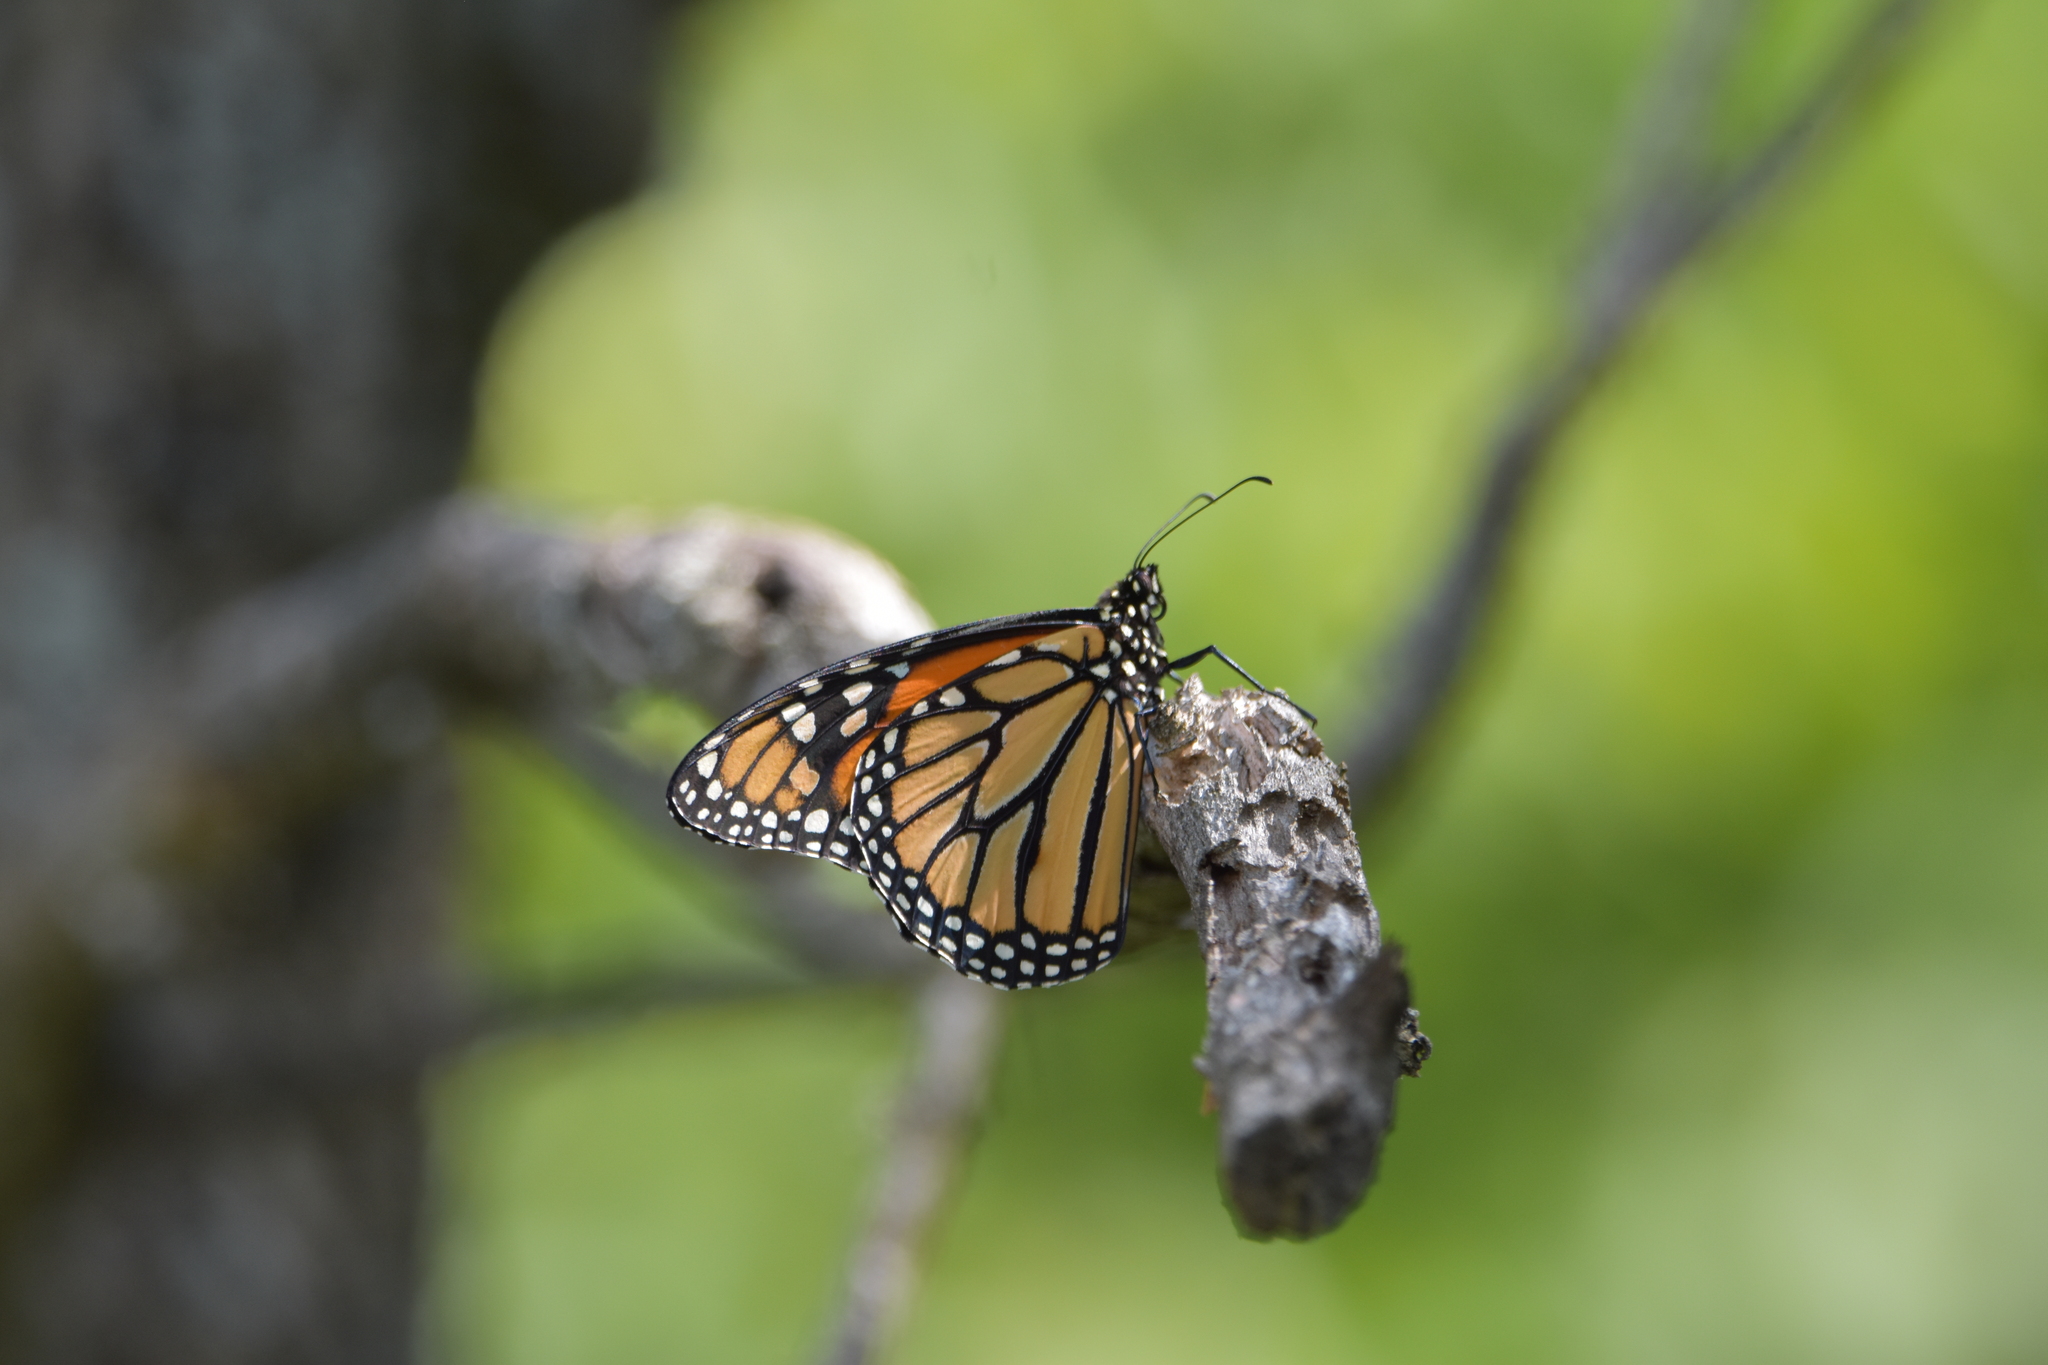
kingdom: Animalia
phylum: Arthropoda
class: Insecta
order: Lepidoptera
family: Nymphalidae
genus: Danaus
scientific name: Danaus plexippus
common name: Monarch
